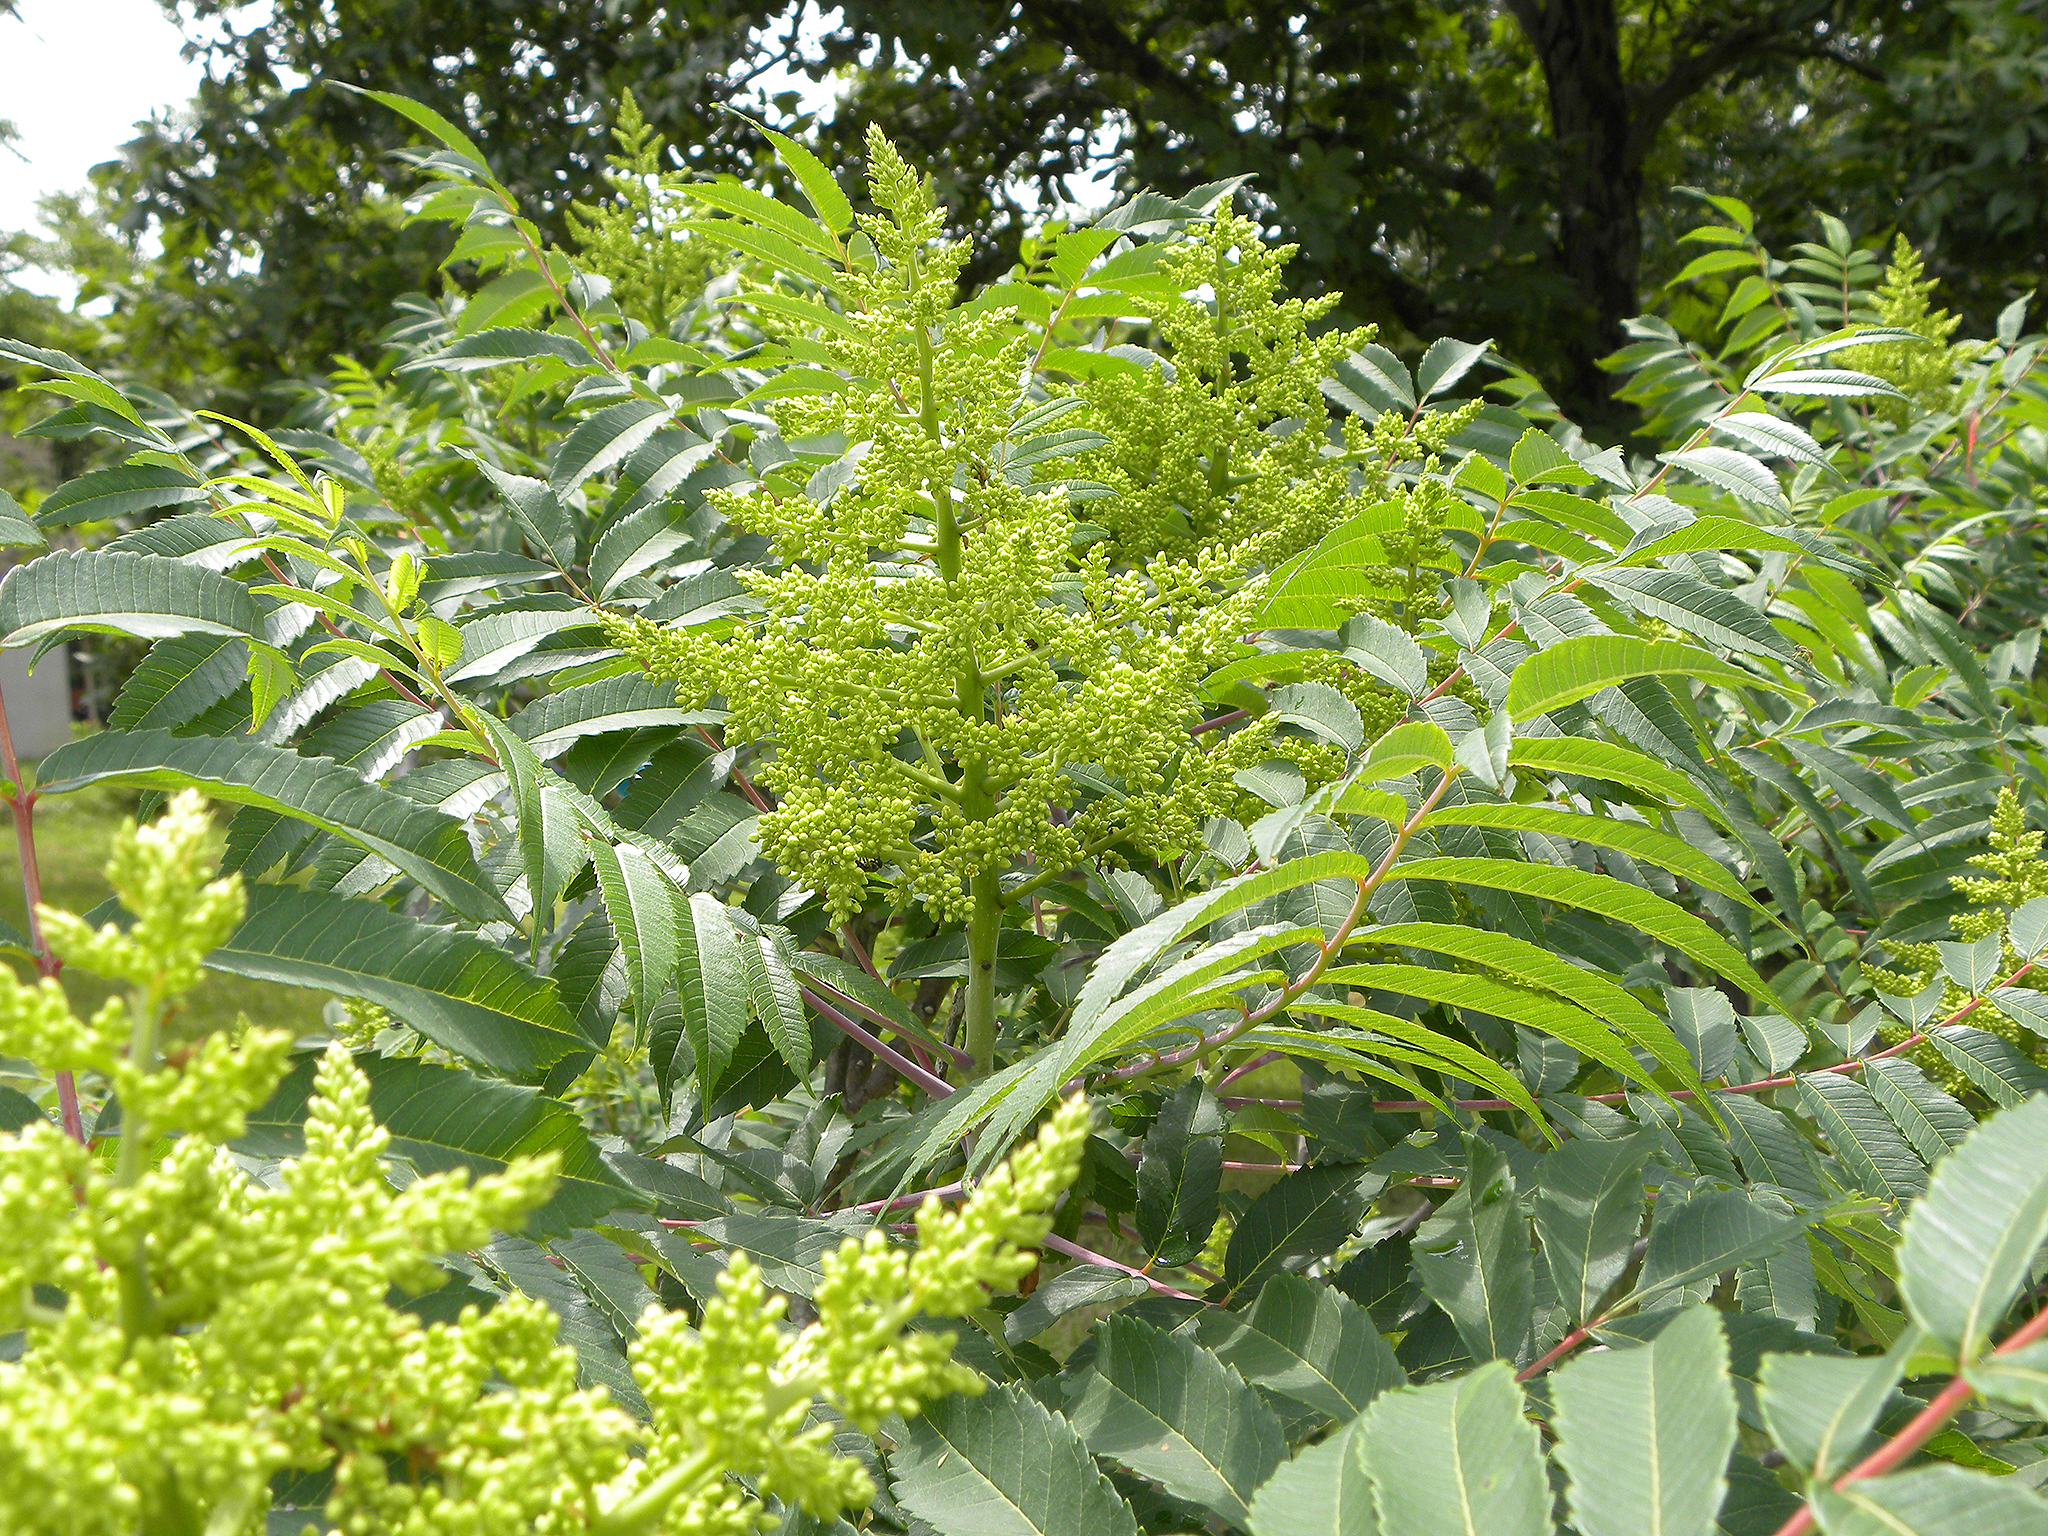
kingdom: Plantae
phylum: Tracheophyta
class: Magnoliopsida
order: Sapindales
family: Anacardiaceae
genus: Rhus
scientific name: Rhus glabra
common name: Scarlet sumac
